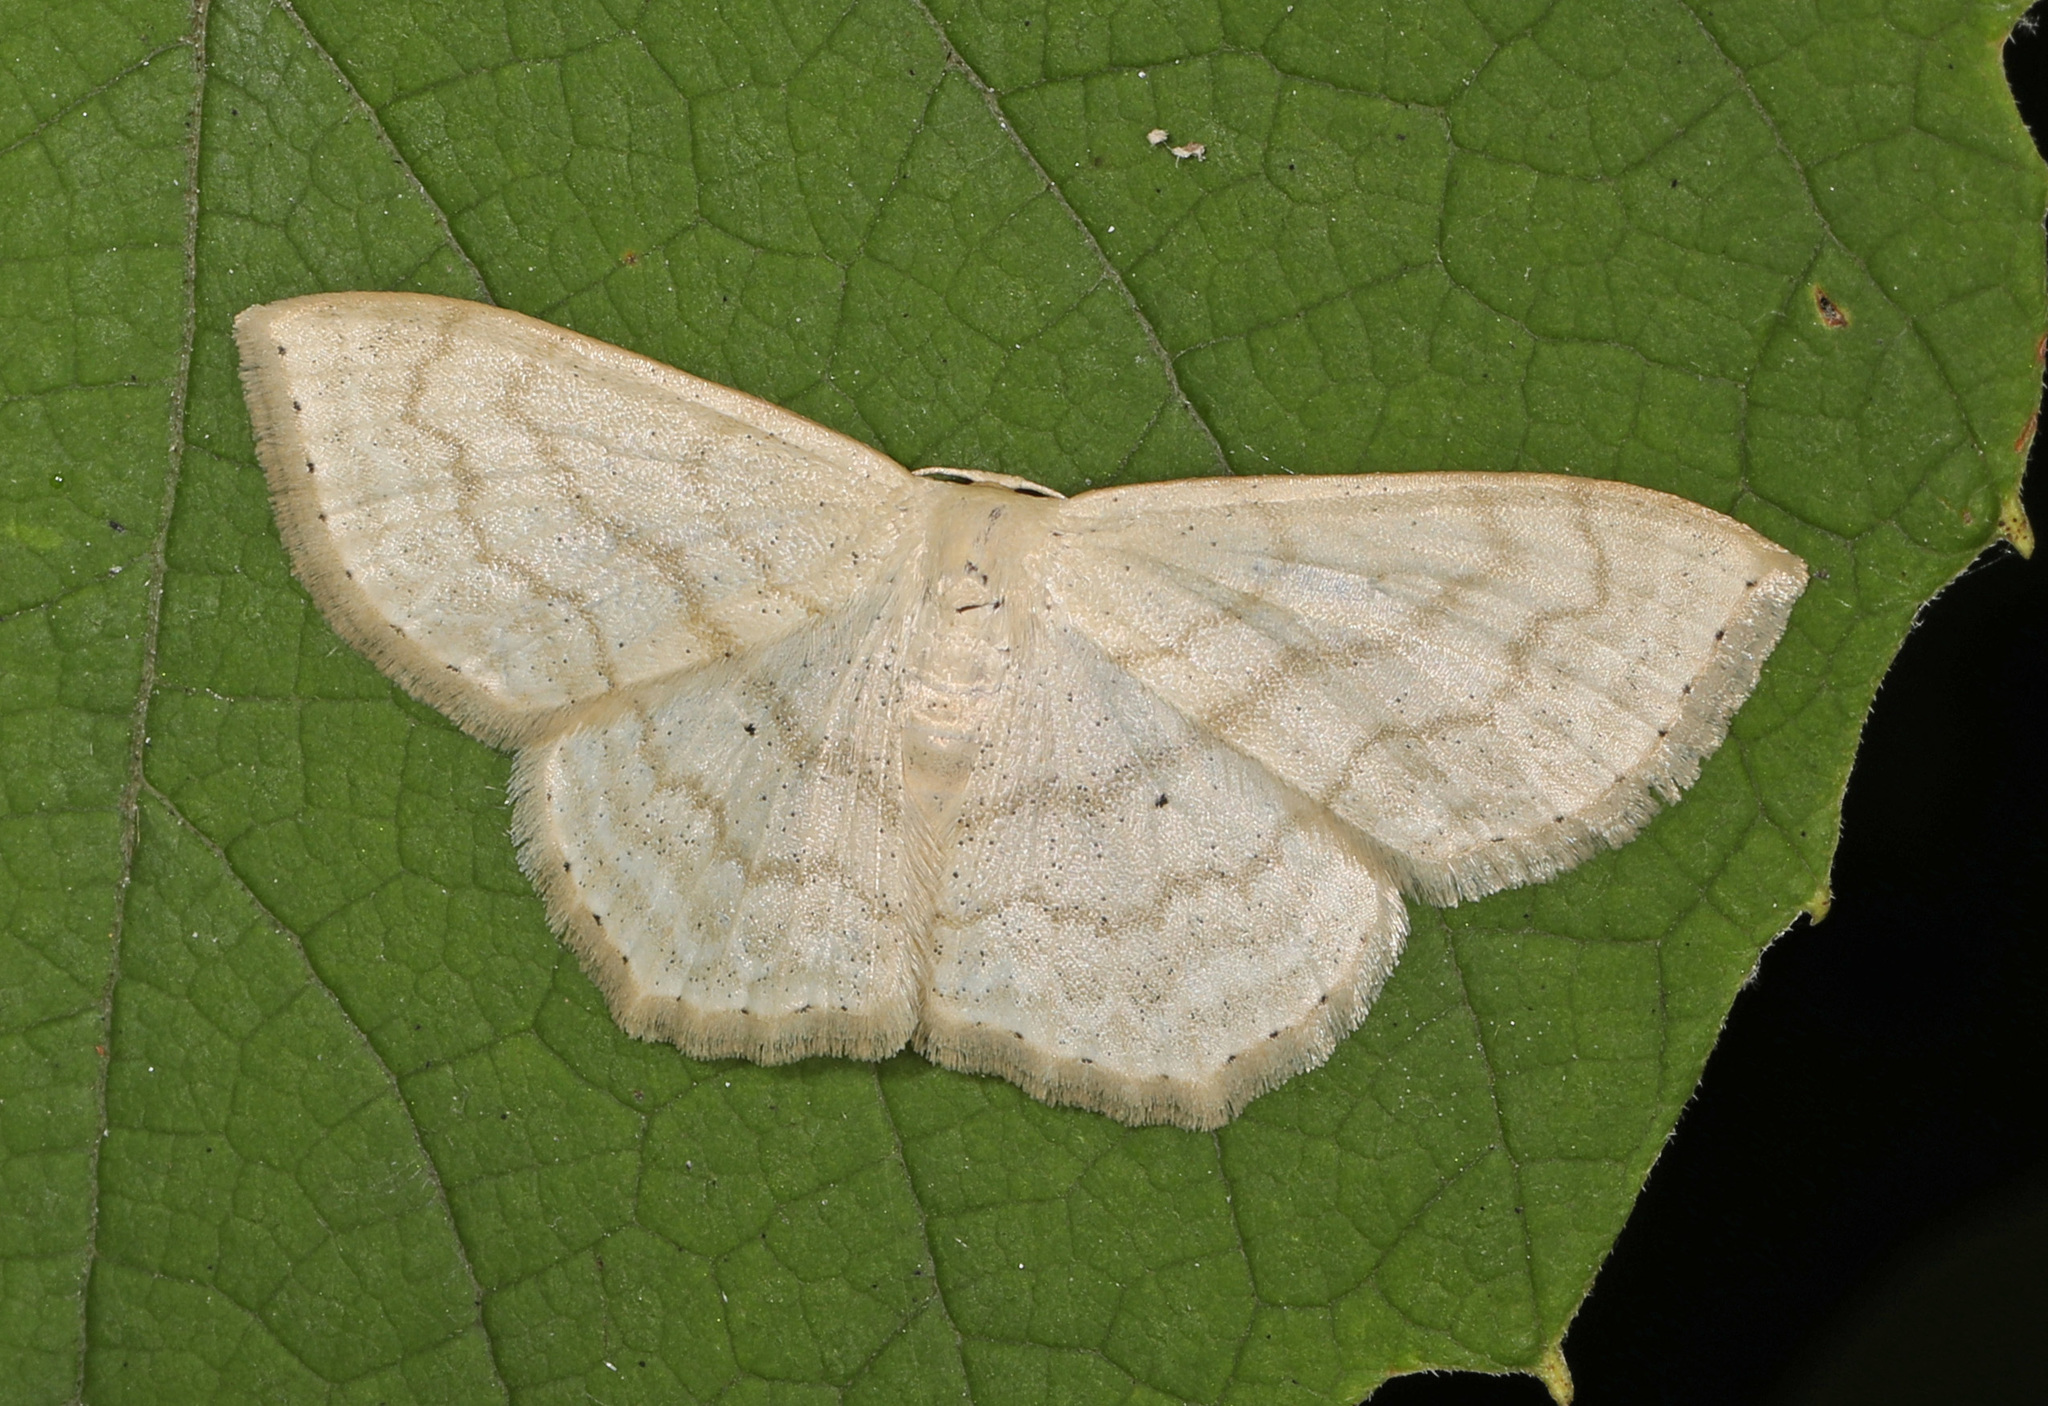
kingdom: Animalia
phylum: Arthropoda
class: Insecta
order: Lepidoptera
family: Geometridae
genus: Scopula
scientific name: Scopula limboundata
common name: Large lace border
